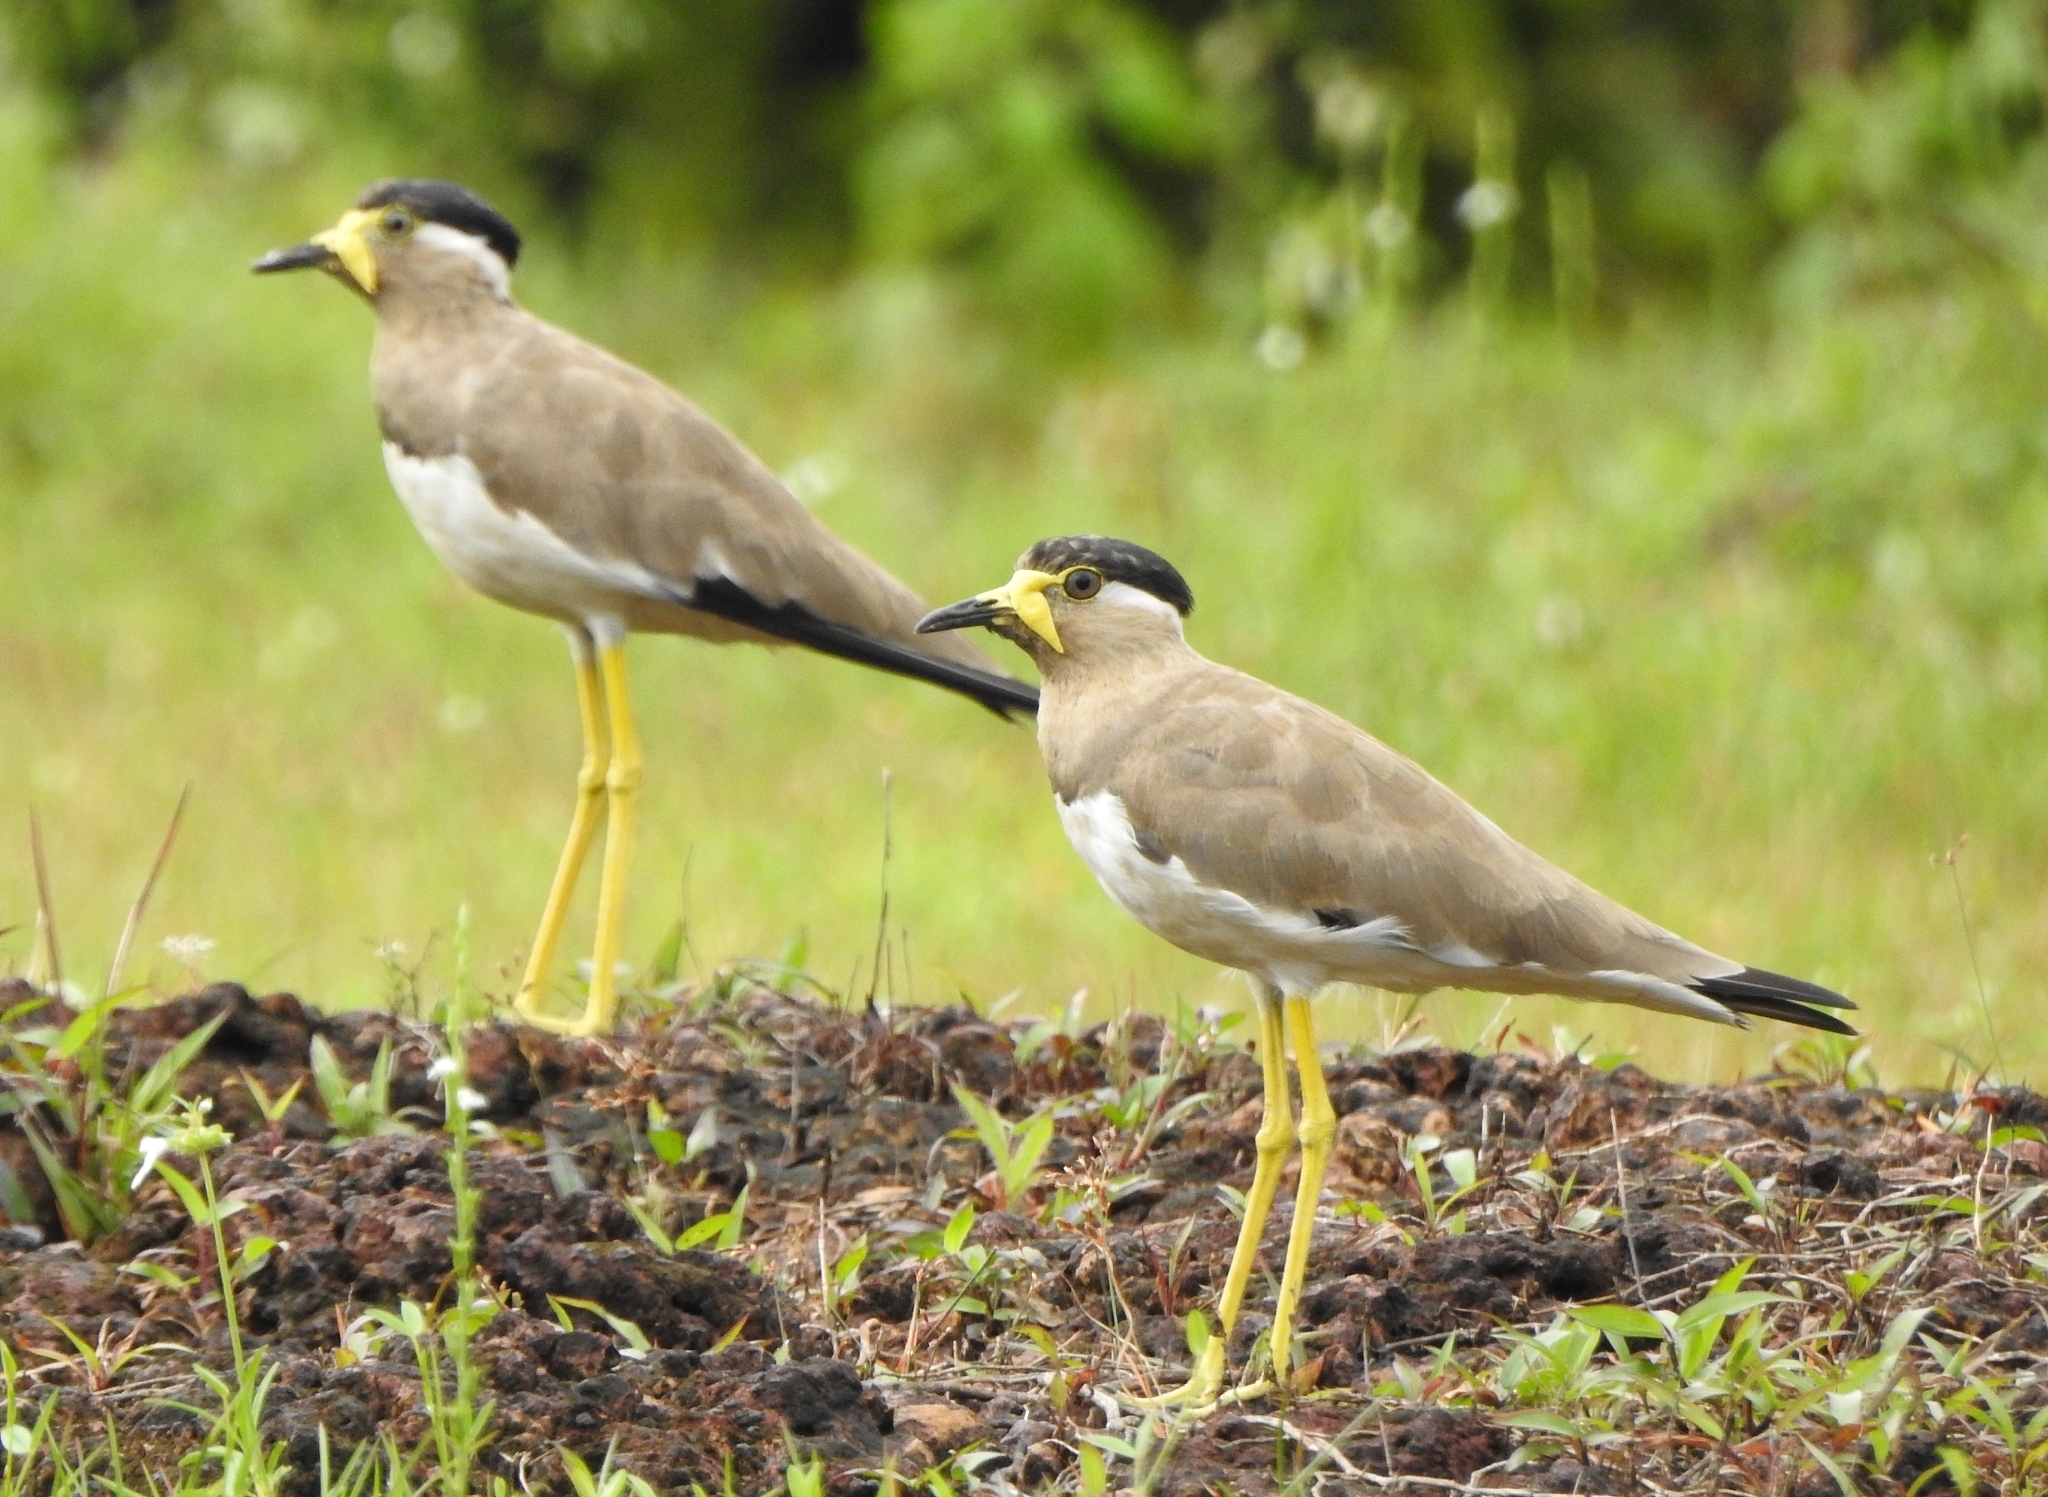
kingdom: Animalia
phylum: Chordata
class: Aves
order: Charadriiformes
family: Charadriidae
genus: Vanellus
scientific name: Vanellus malabaricus
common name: Yellow-wattled lapwing
